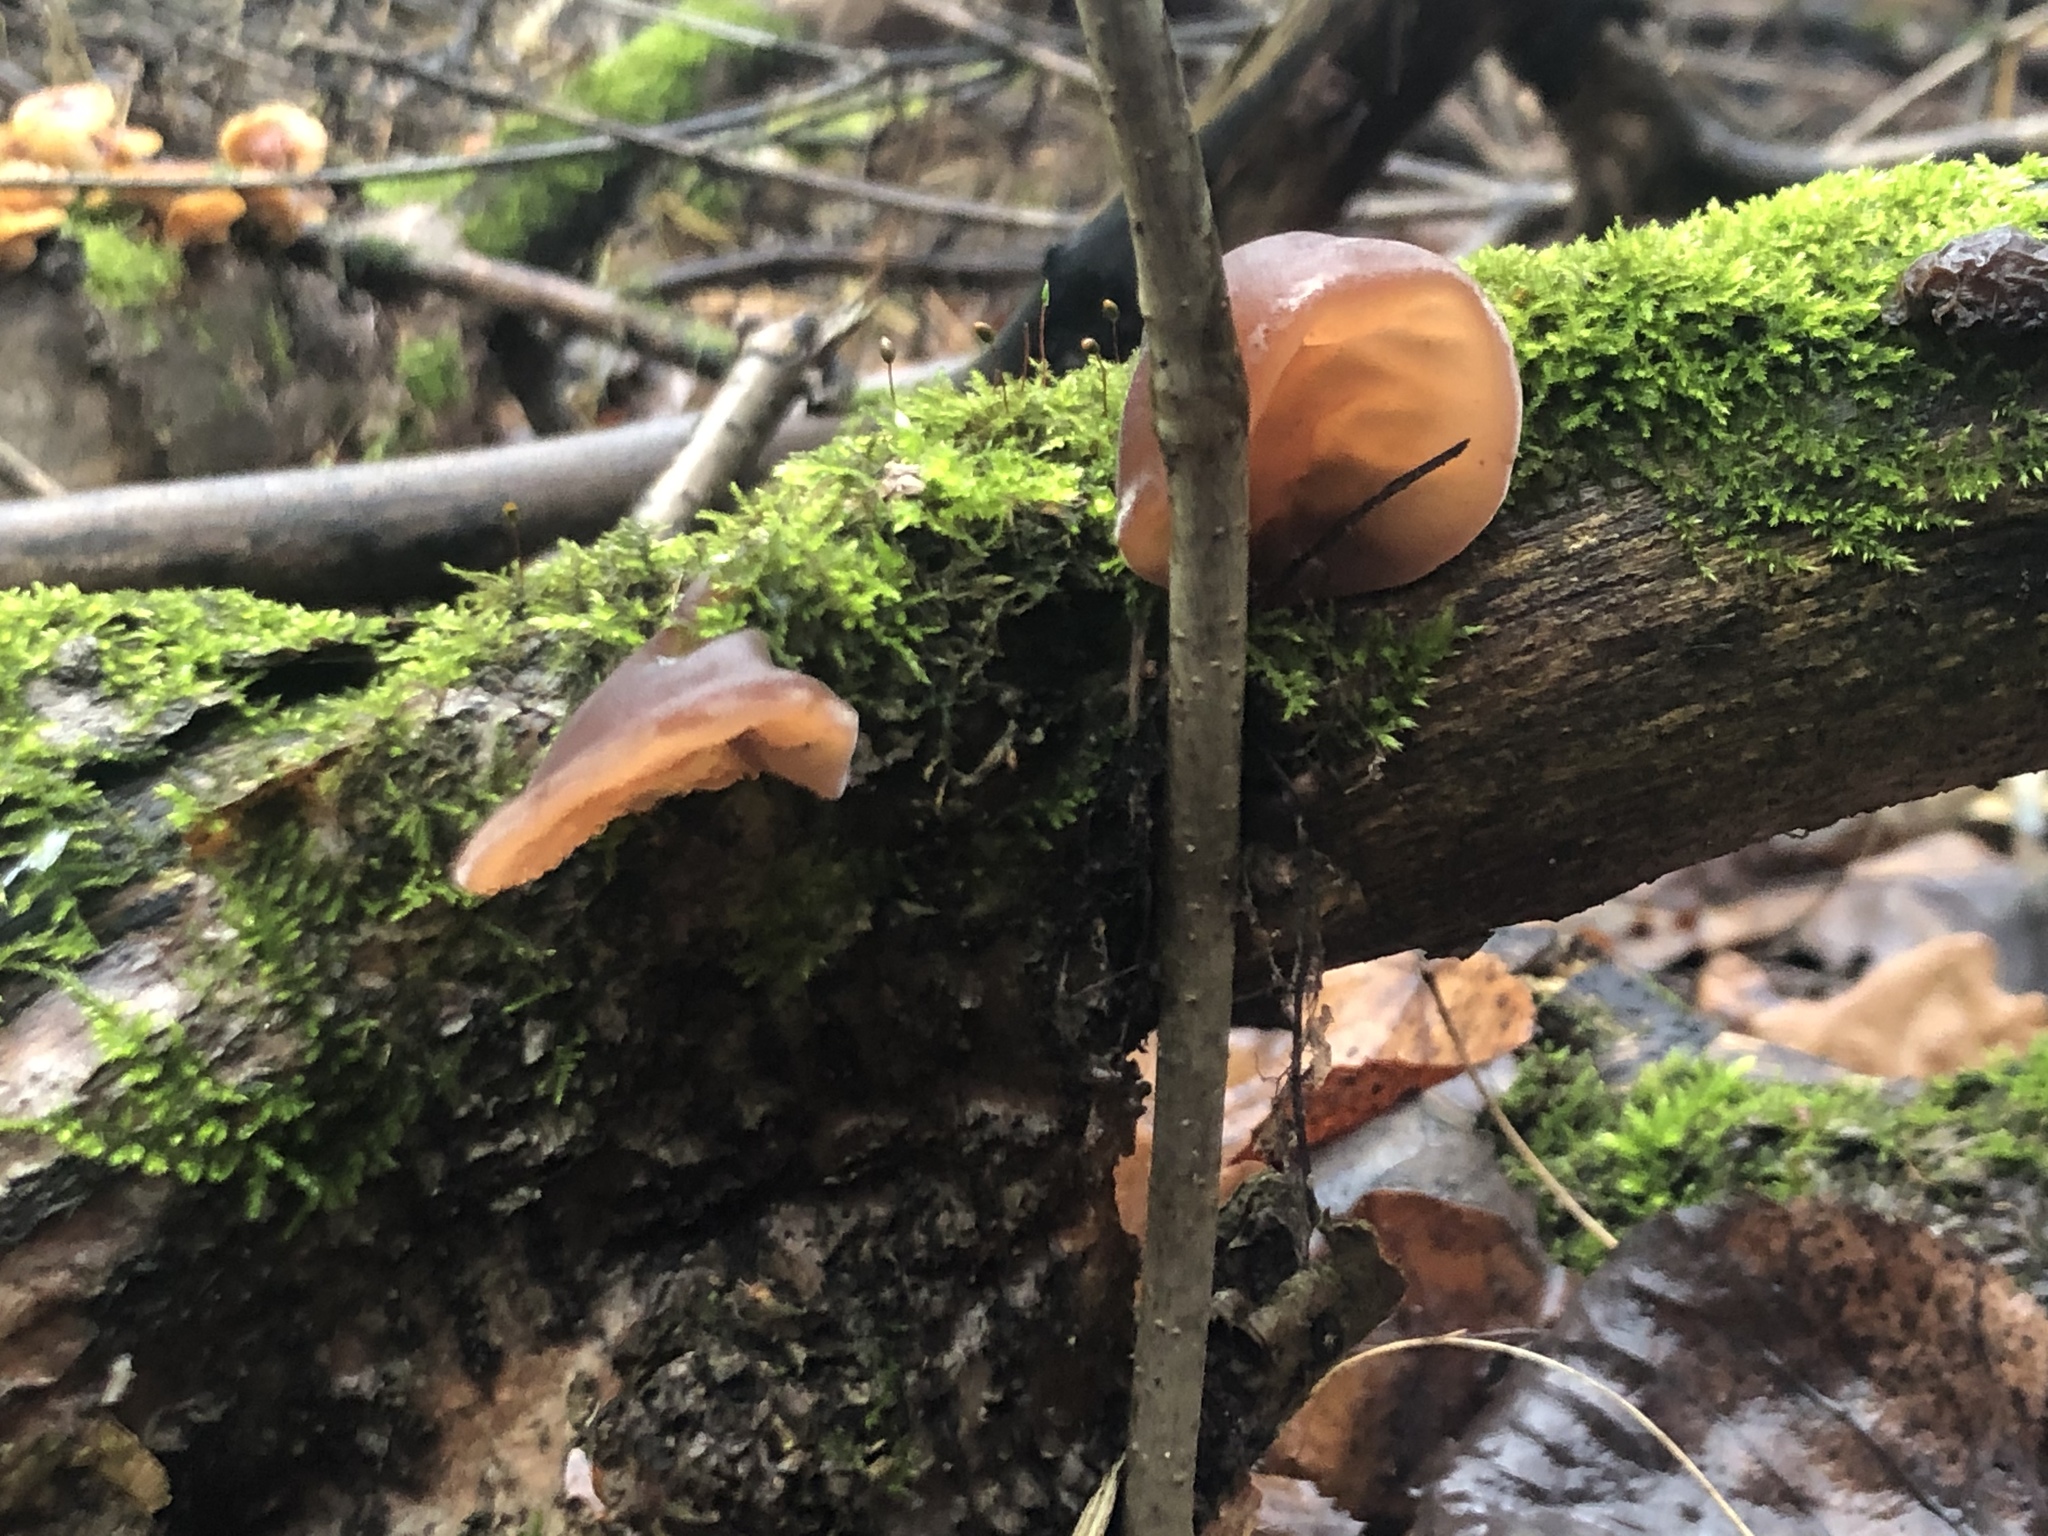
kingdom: Fungi
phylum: Basidiomycota
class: Agaricomycetes
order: Auriculariales
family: Auriculariaceae
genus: Auricularia
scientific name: Auricularia auricula-judae
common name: Jelly ear
